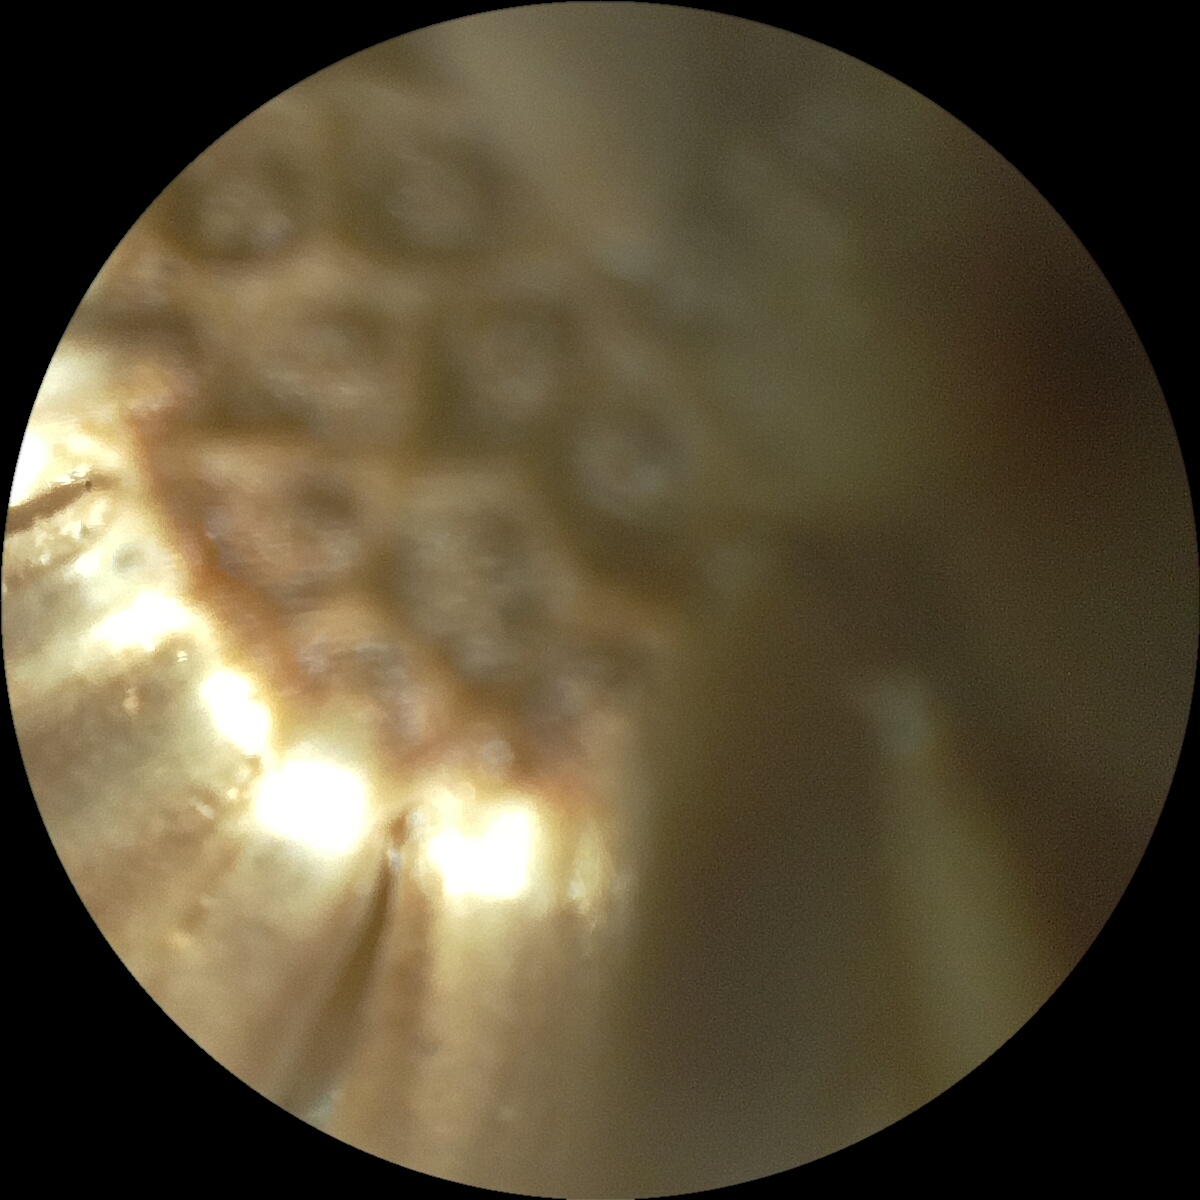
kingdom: Plantae
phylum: Tracheophyta
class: Magnoliopsida
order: Asterales
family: Asteraceae
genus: Dittrichia
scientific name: Dittrichia viscosa
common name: Woody fleabane
